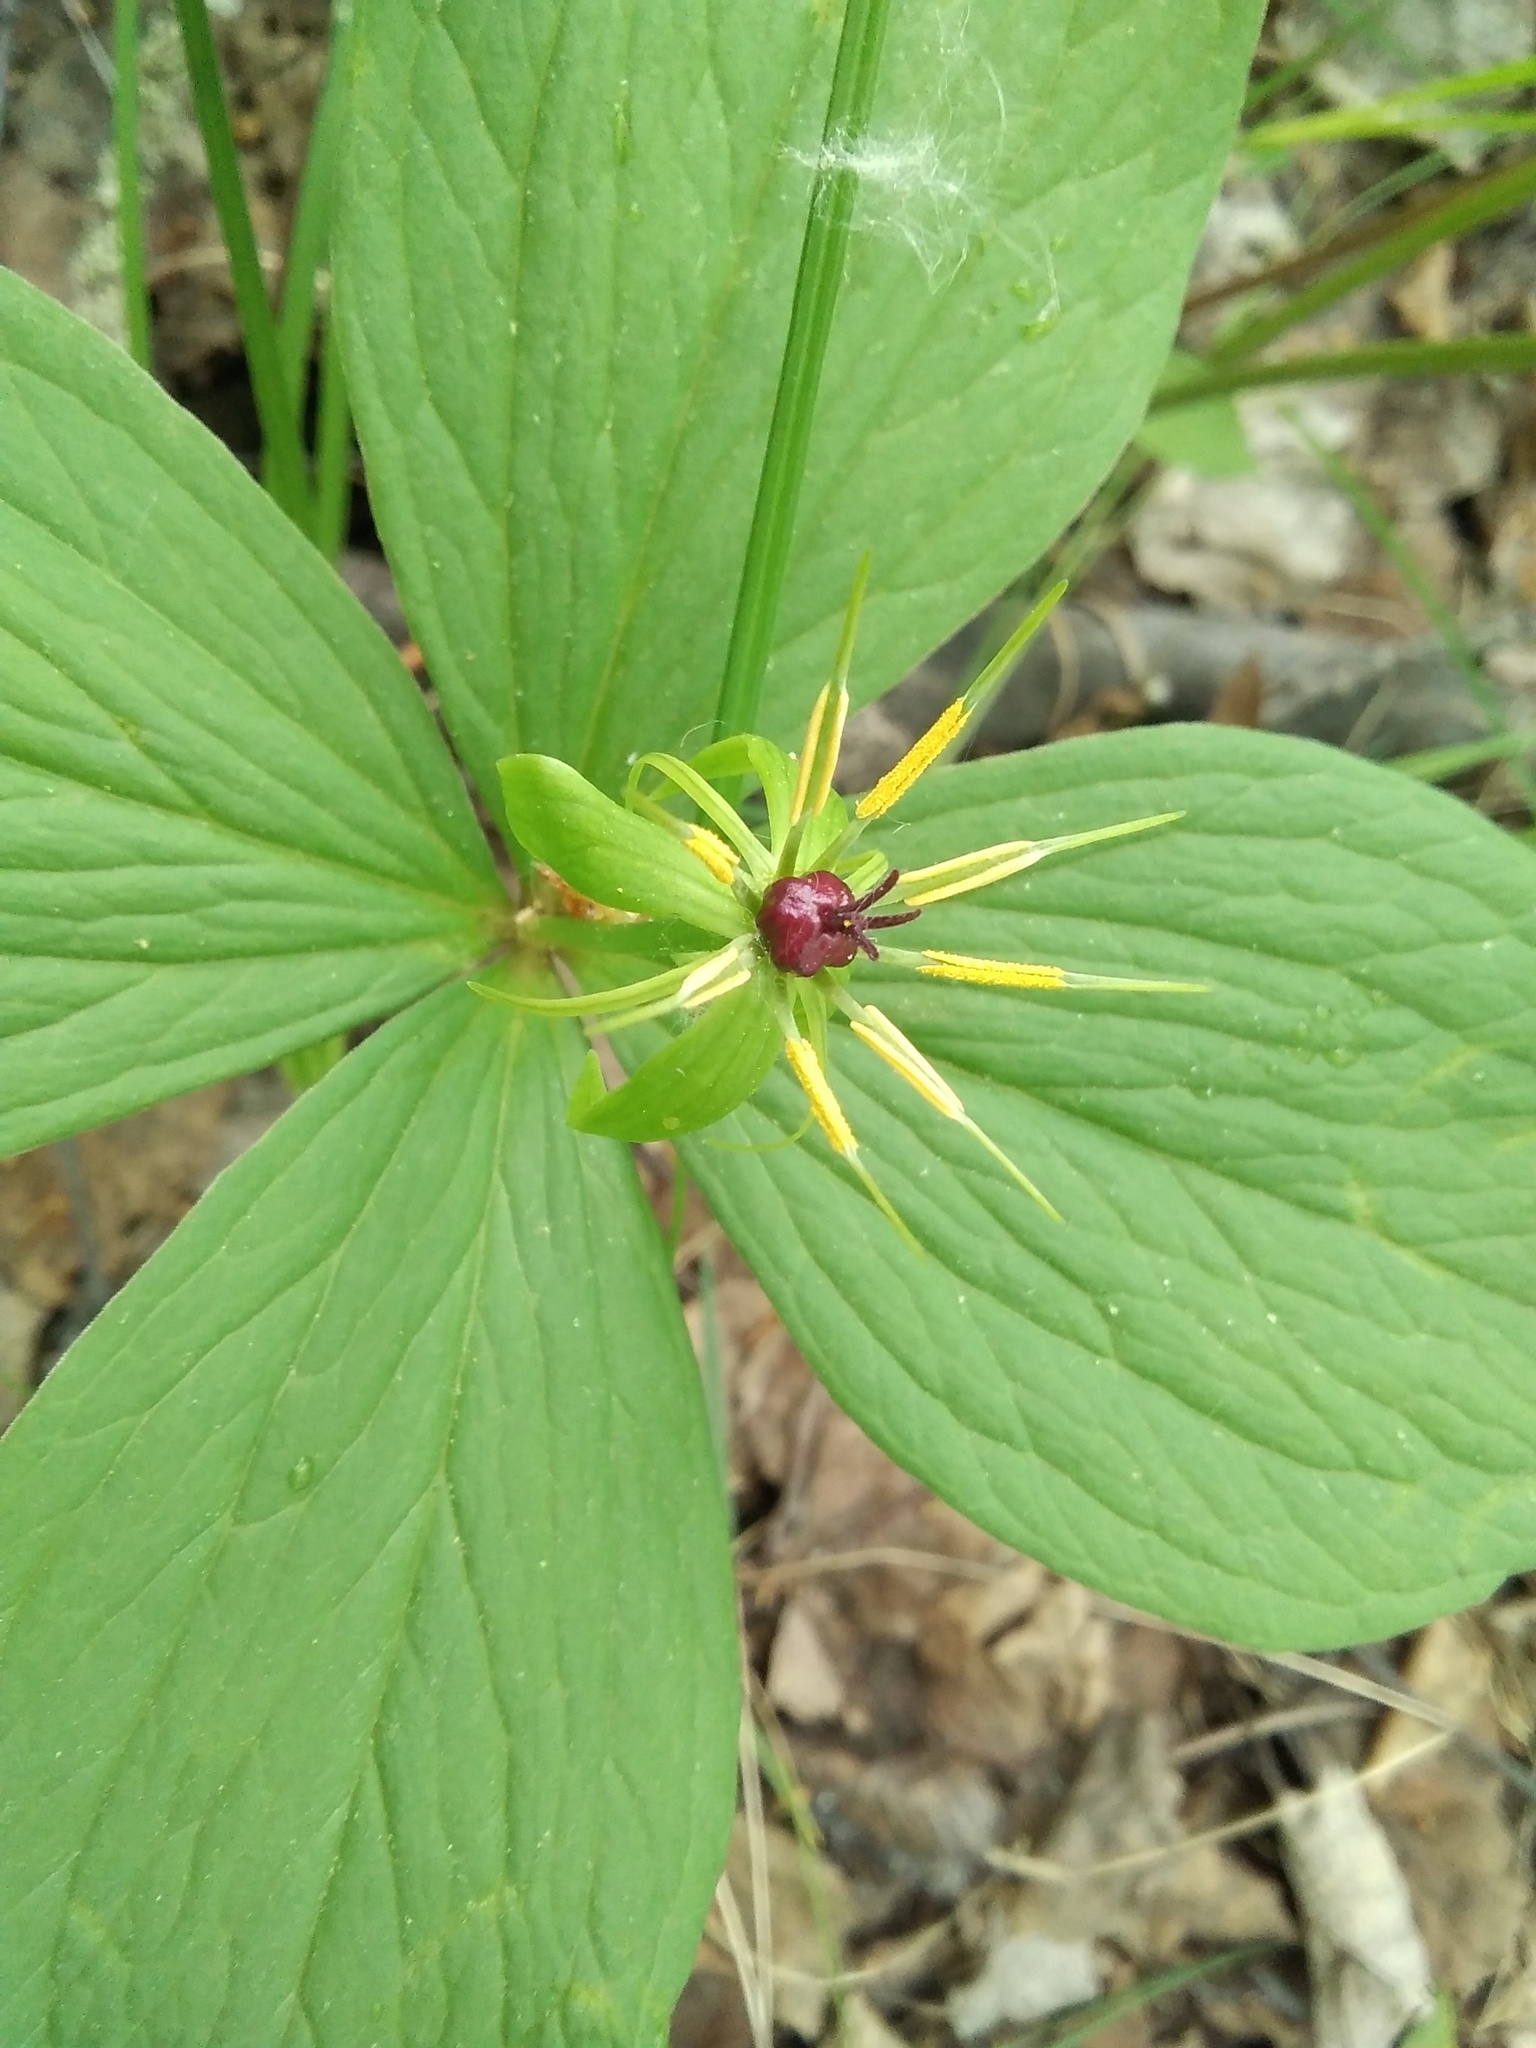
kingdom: Plantae
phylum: Tracheophyta
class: Liliopsida
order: Liliales
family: Melanthiaceae
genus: Paris
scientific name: Paris quadrifolia
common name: Herb-paris
